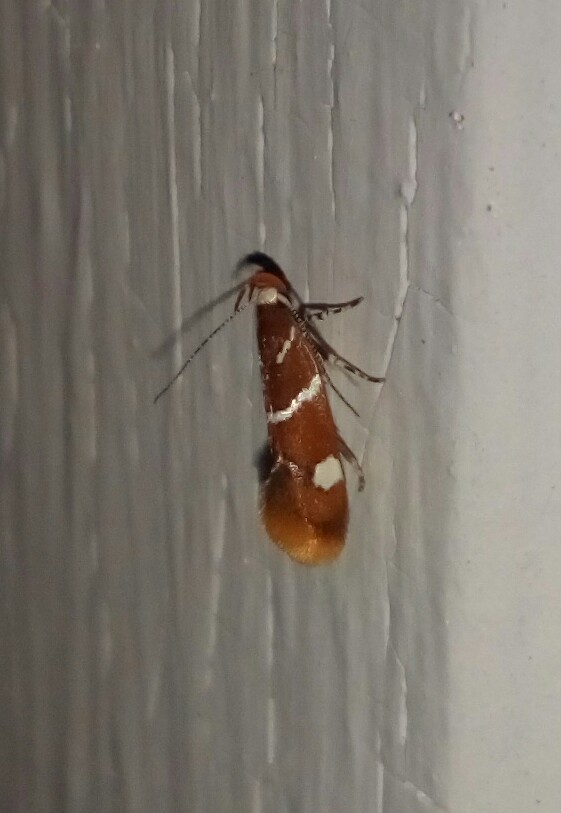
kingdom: Animalia
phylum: Arthropoda
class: Insecta
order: Lepidoptera
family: Oecophoridae
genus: Promalactis
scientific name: Promalactis suzukiella
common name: Moth
